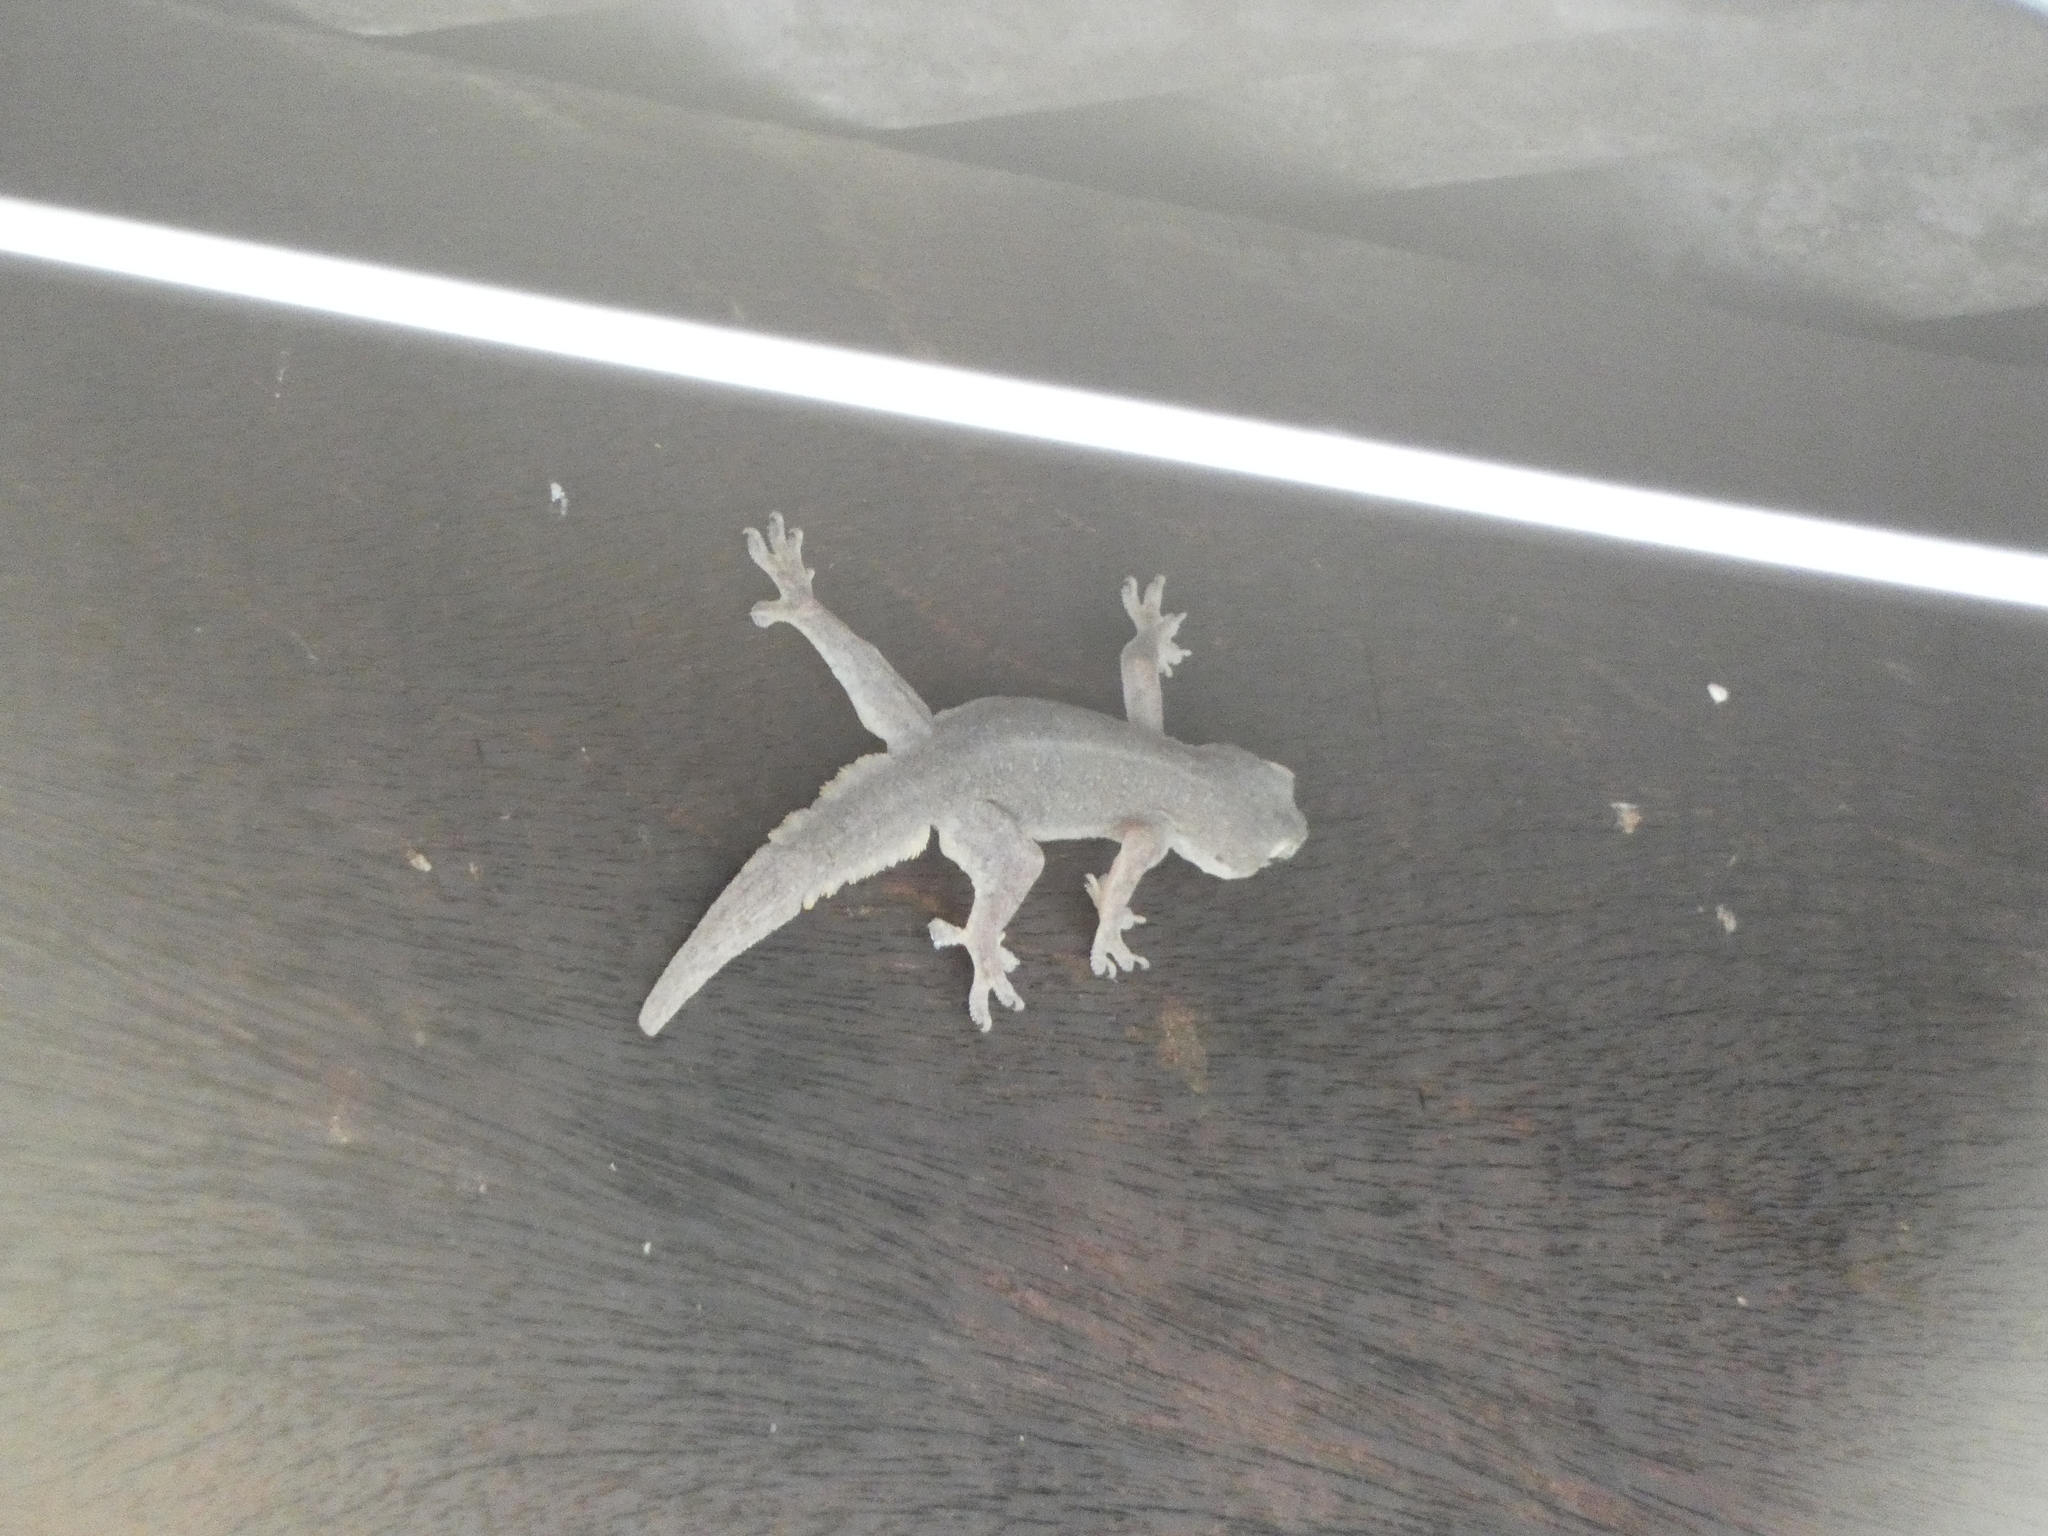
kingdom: Animalia
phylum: Chordata
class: Squamata
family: Gekkonidae
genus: Hemidactylus
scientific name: Hemidactylus platyurus
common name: Flat-tailed house gecko
